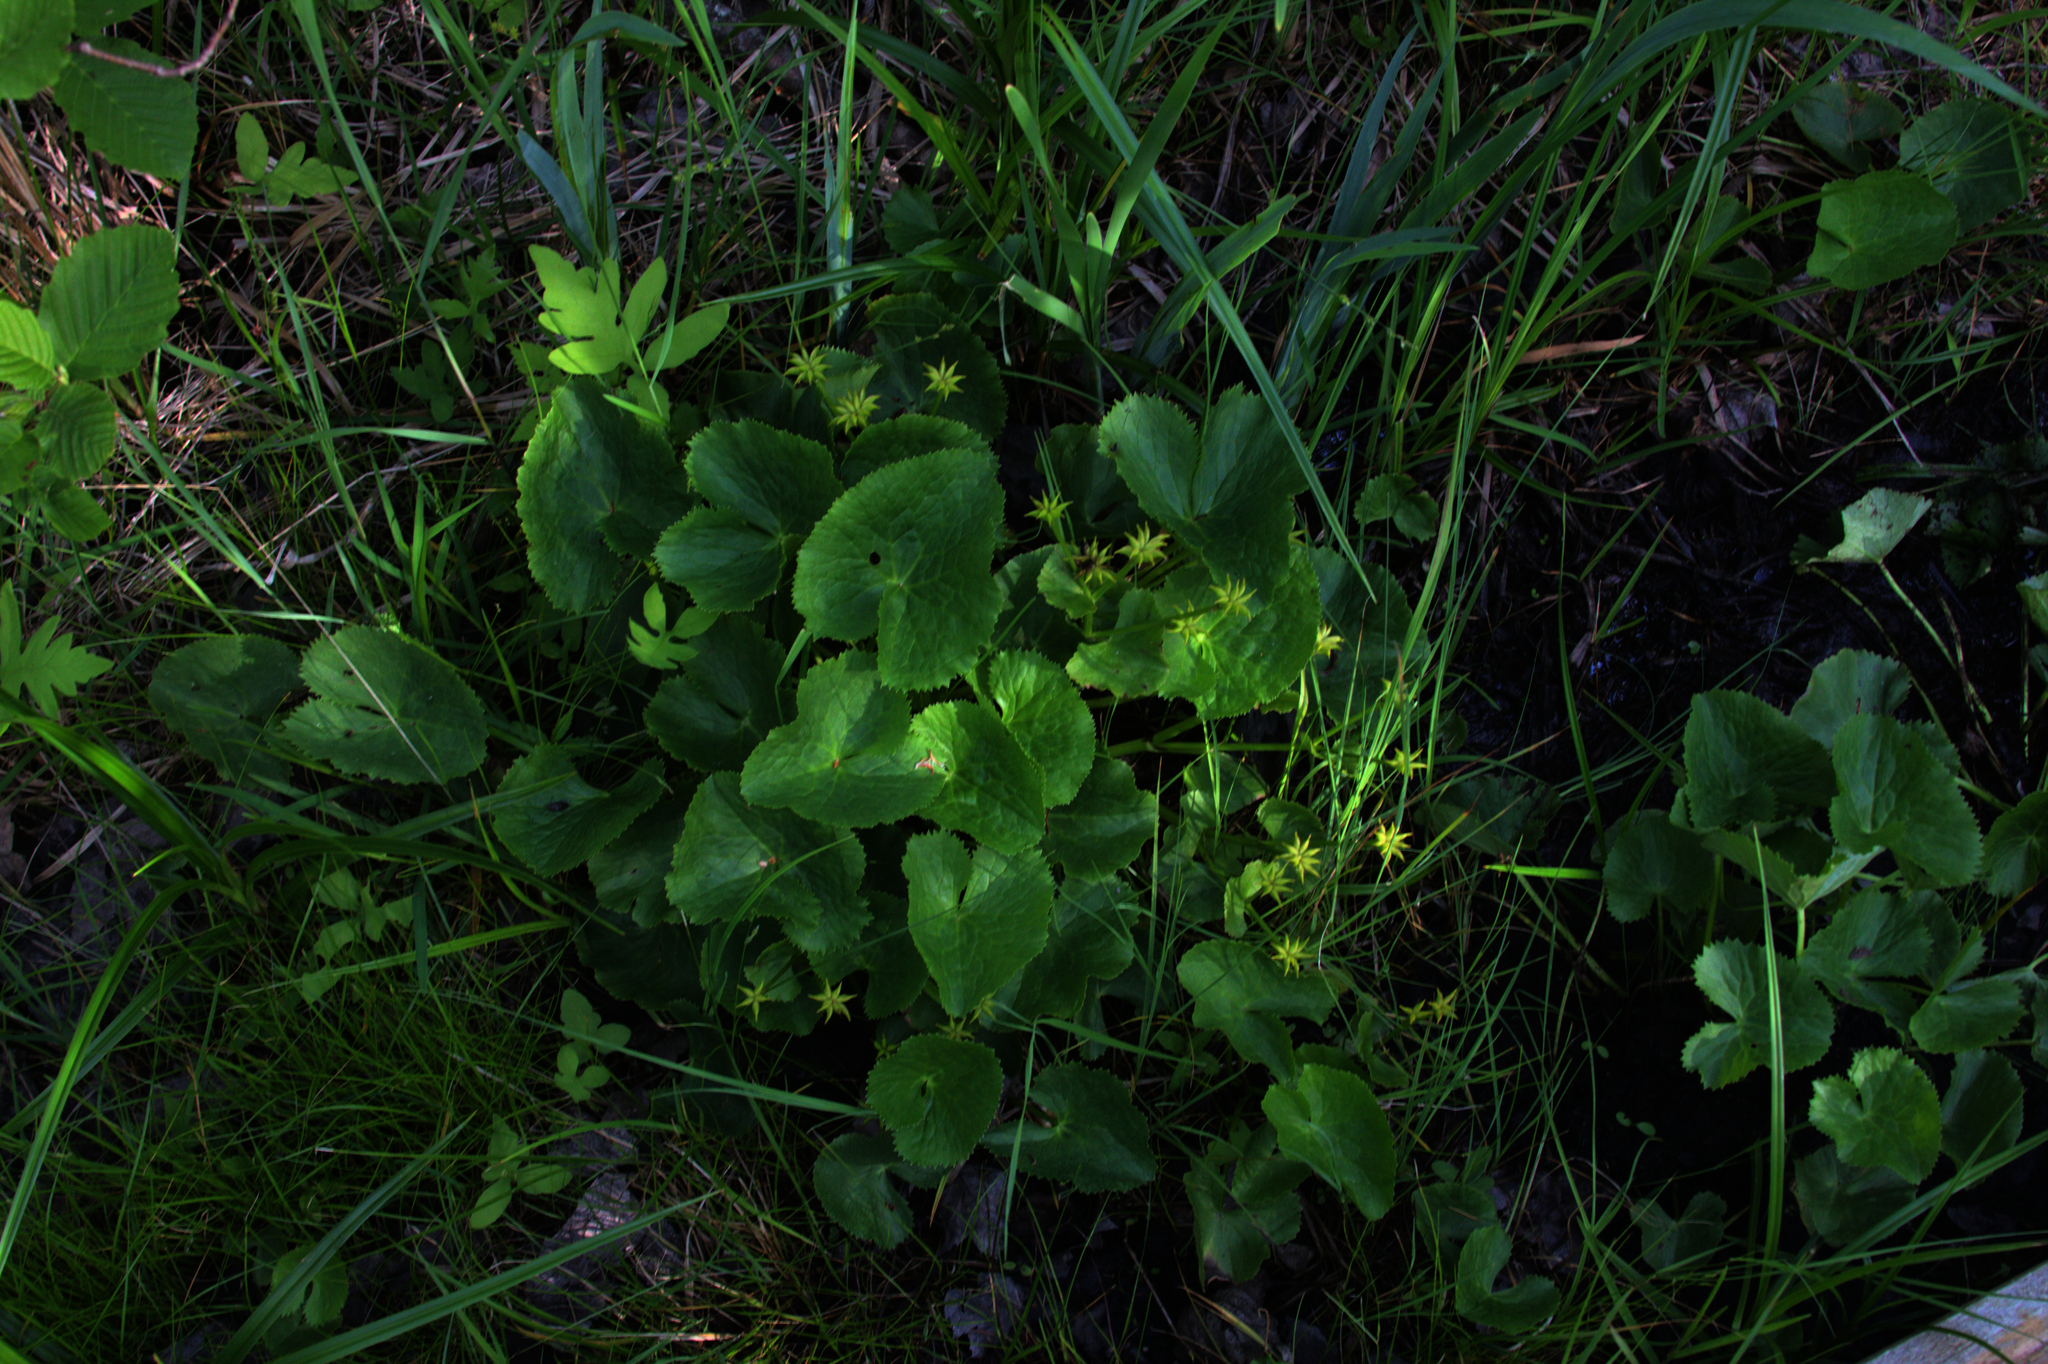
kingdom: Plantae
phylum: Tracheophyta
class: Magnoliopsida
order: Ranunculales
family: Ranunculaceae
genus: Caltha
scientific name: Caltha palustris
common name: Marsh marigold
